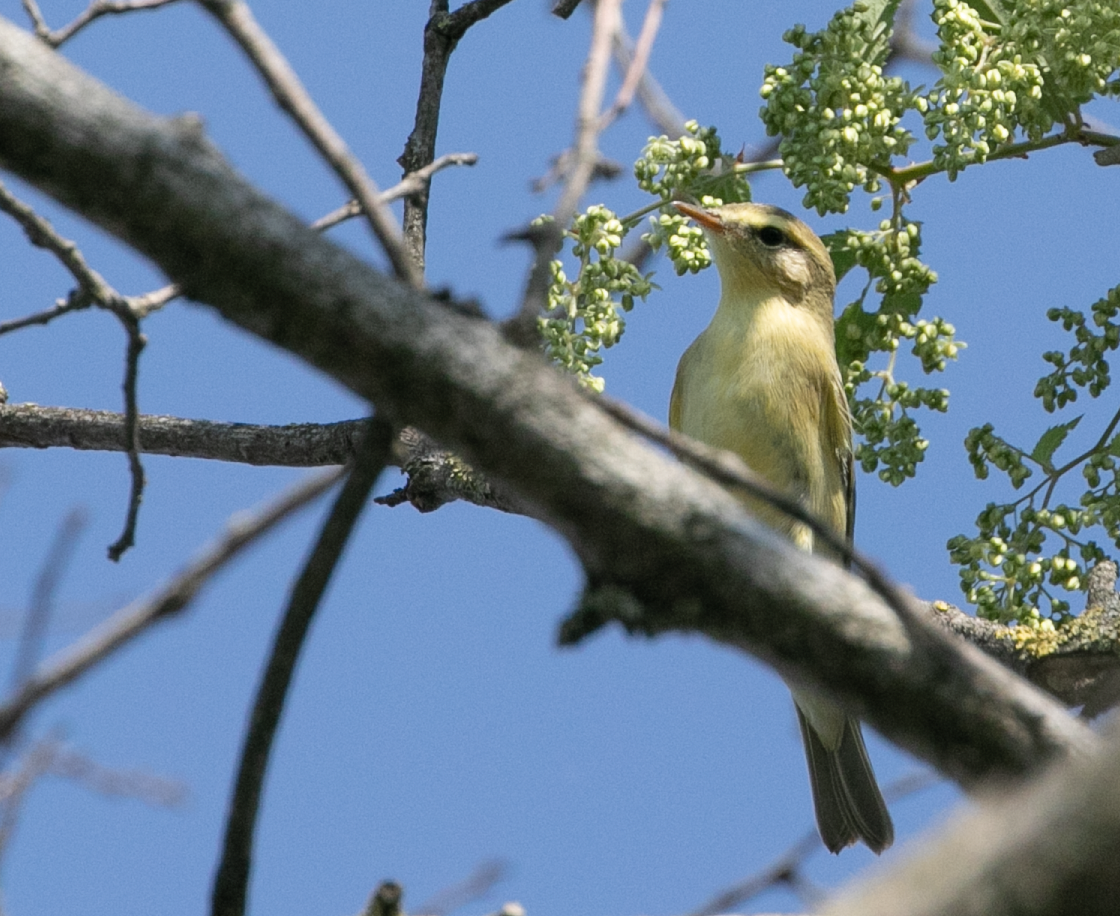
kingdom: Animalia
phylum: Chordata
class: Aves
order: Passeriformes
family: Phylloscopidae
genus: Phylloscopus
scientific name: Phylloscopus trochilus
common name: Willow warbler
